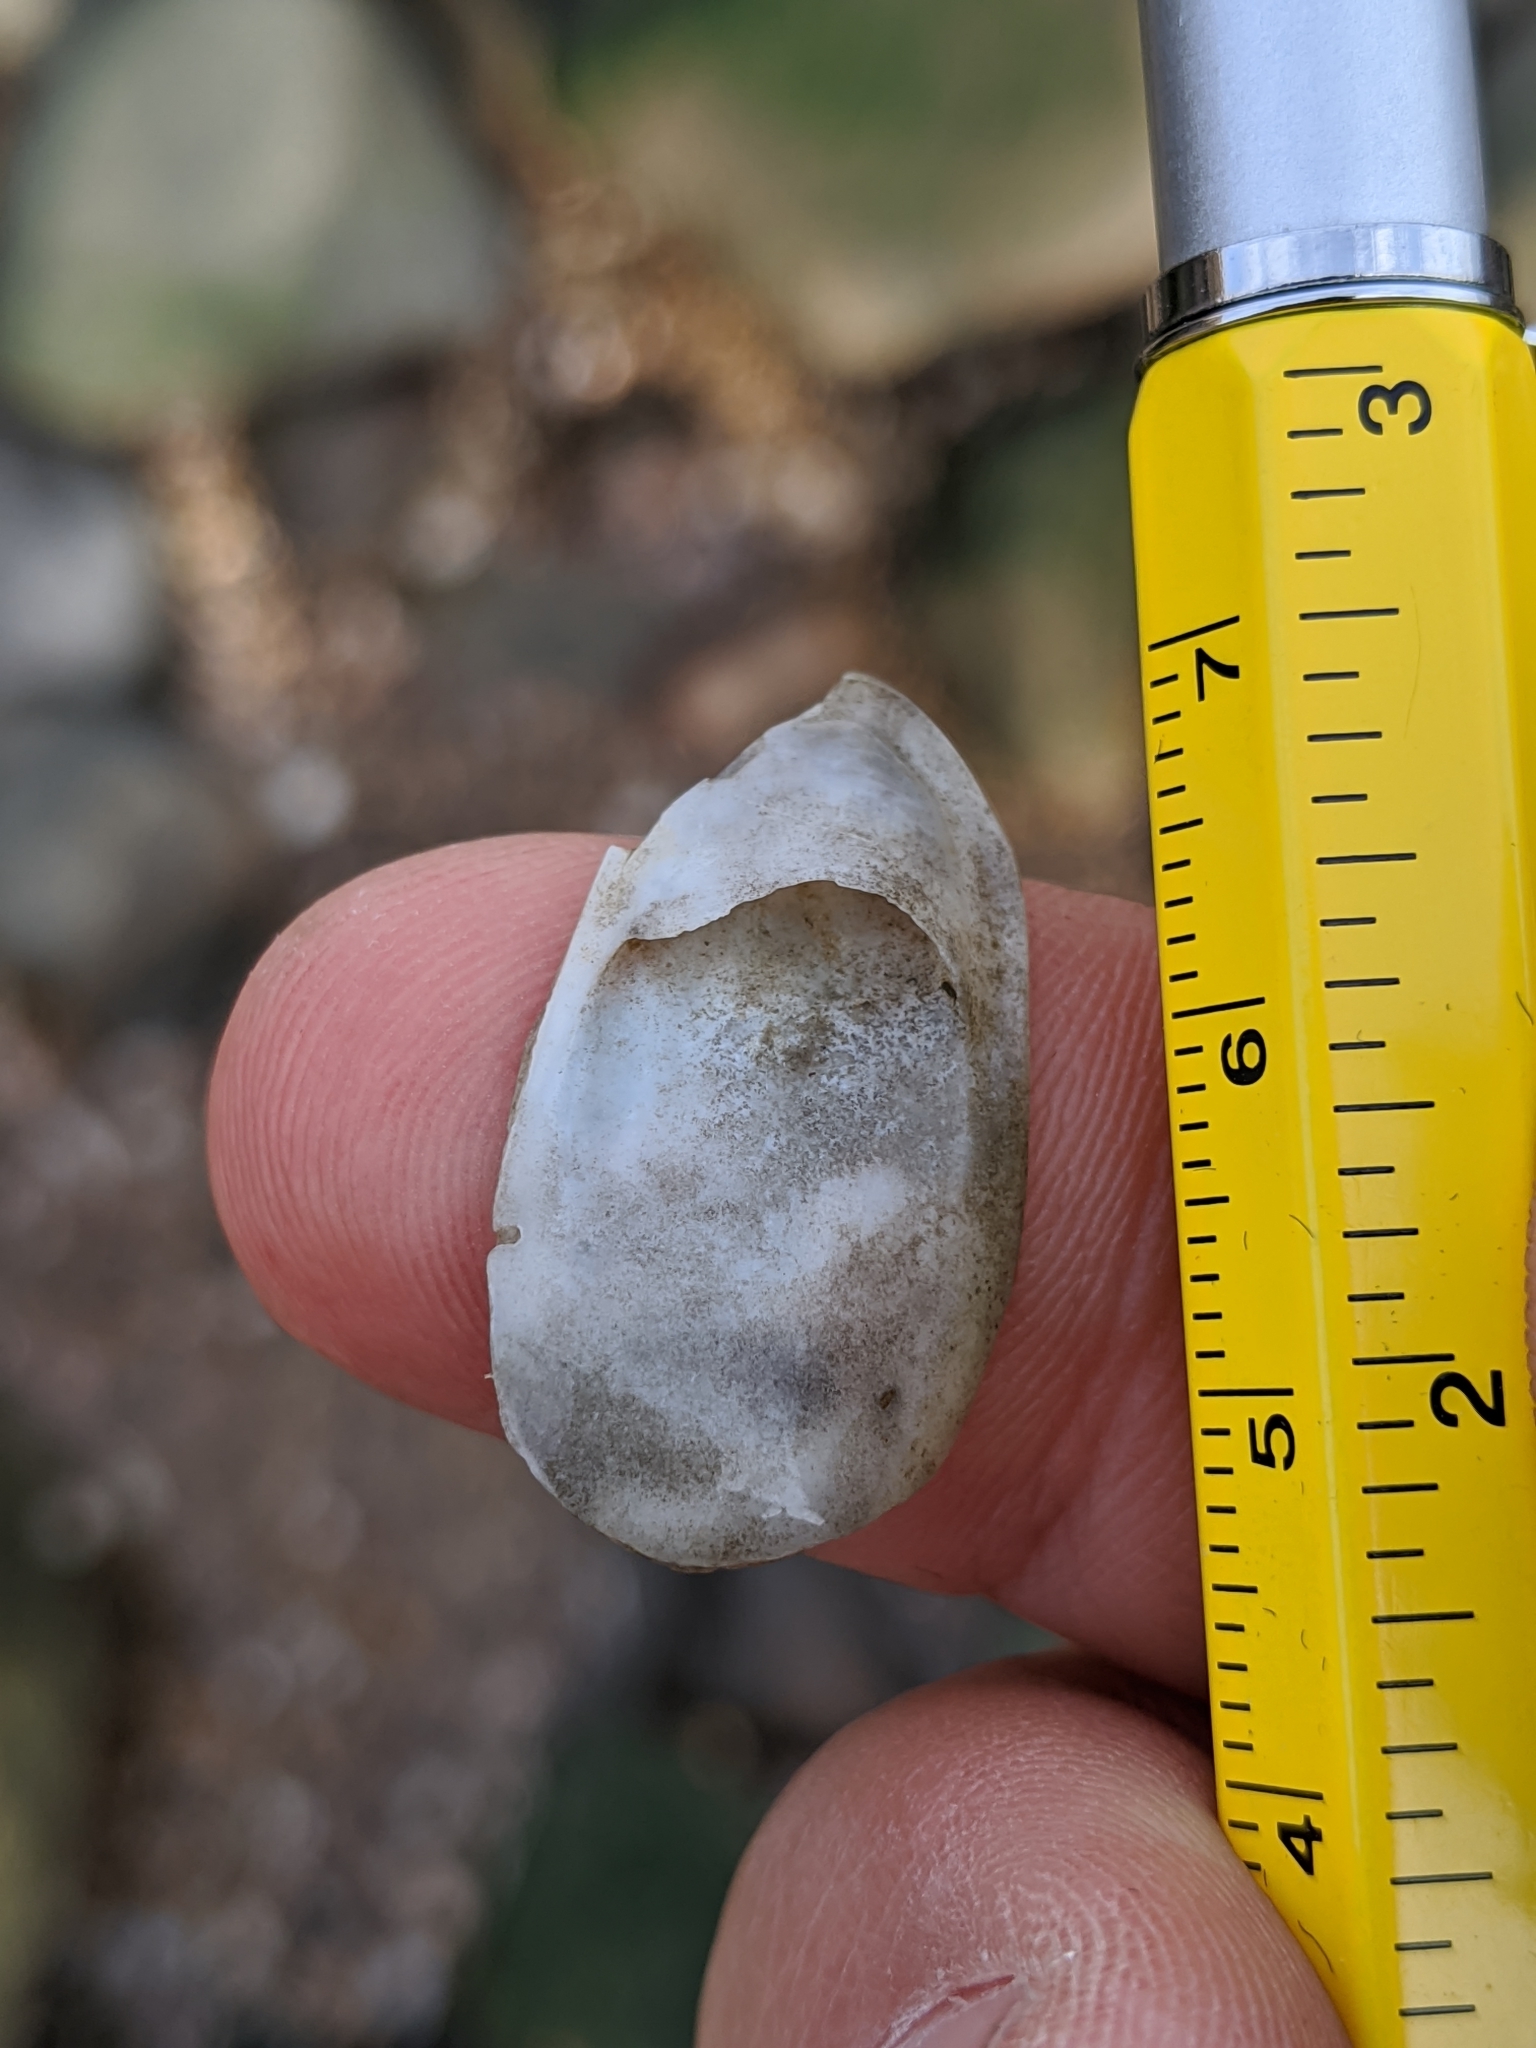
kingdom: Animalia
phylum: Mollusca
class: Gastropoda
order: Littorinimorpha
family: Calyptraeidae
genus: Crepidula
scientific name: Crepidula plana
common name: Eastern white slippersnail
